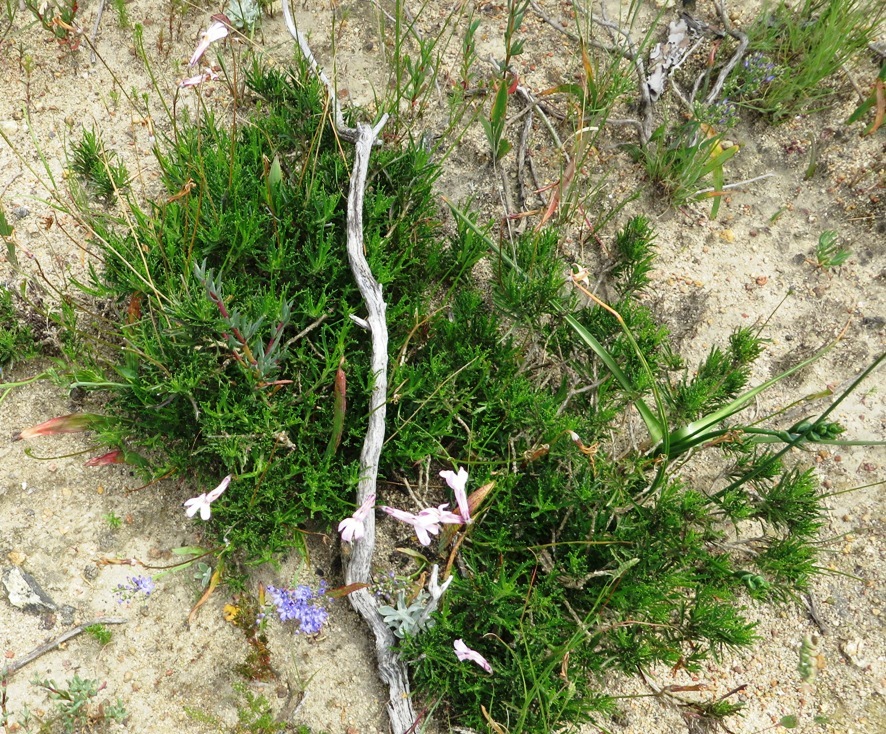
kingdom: Plantae
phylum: Tracheophyta
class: Magnoliopsida
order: Asterales
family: Campanulaceae
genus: Lobelia
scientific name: Lobelia coronopifolia
